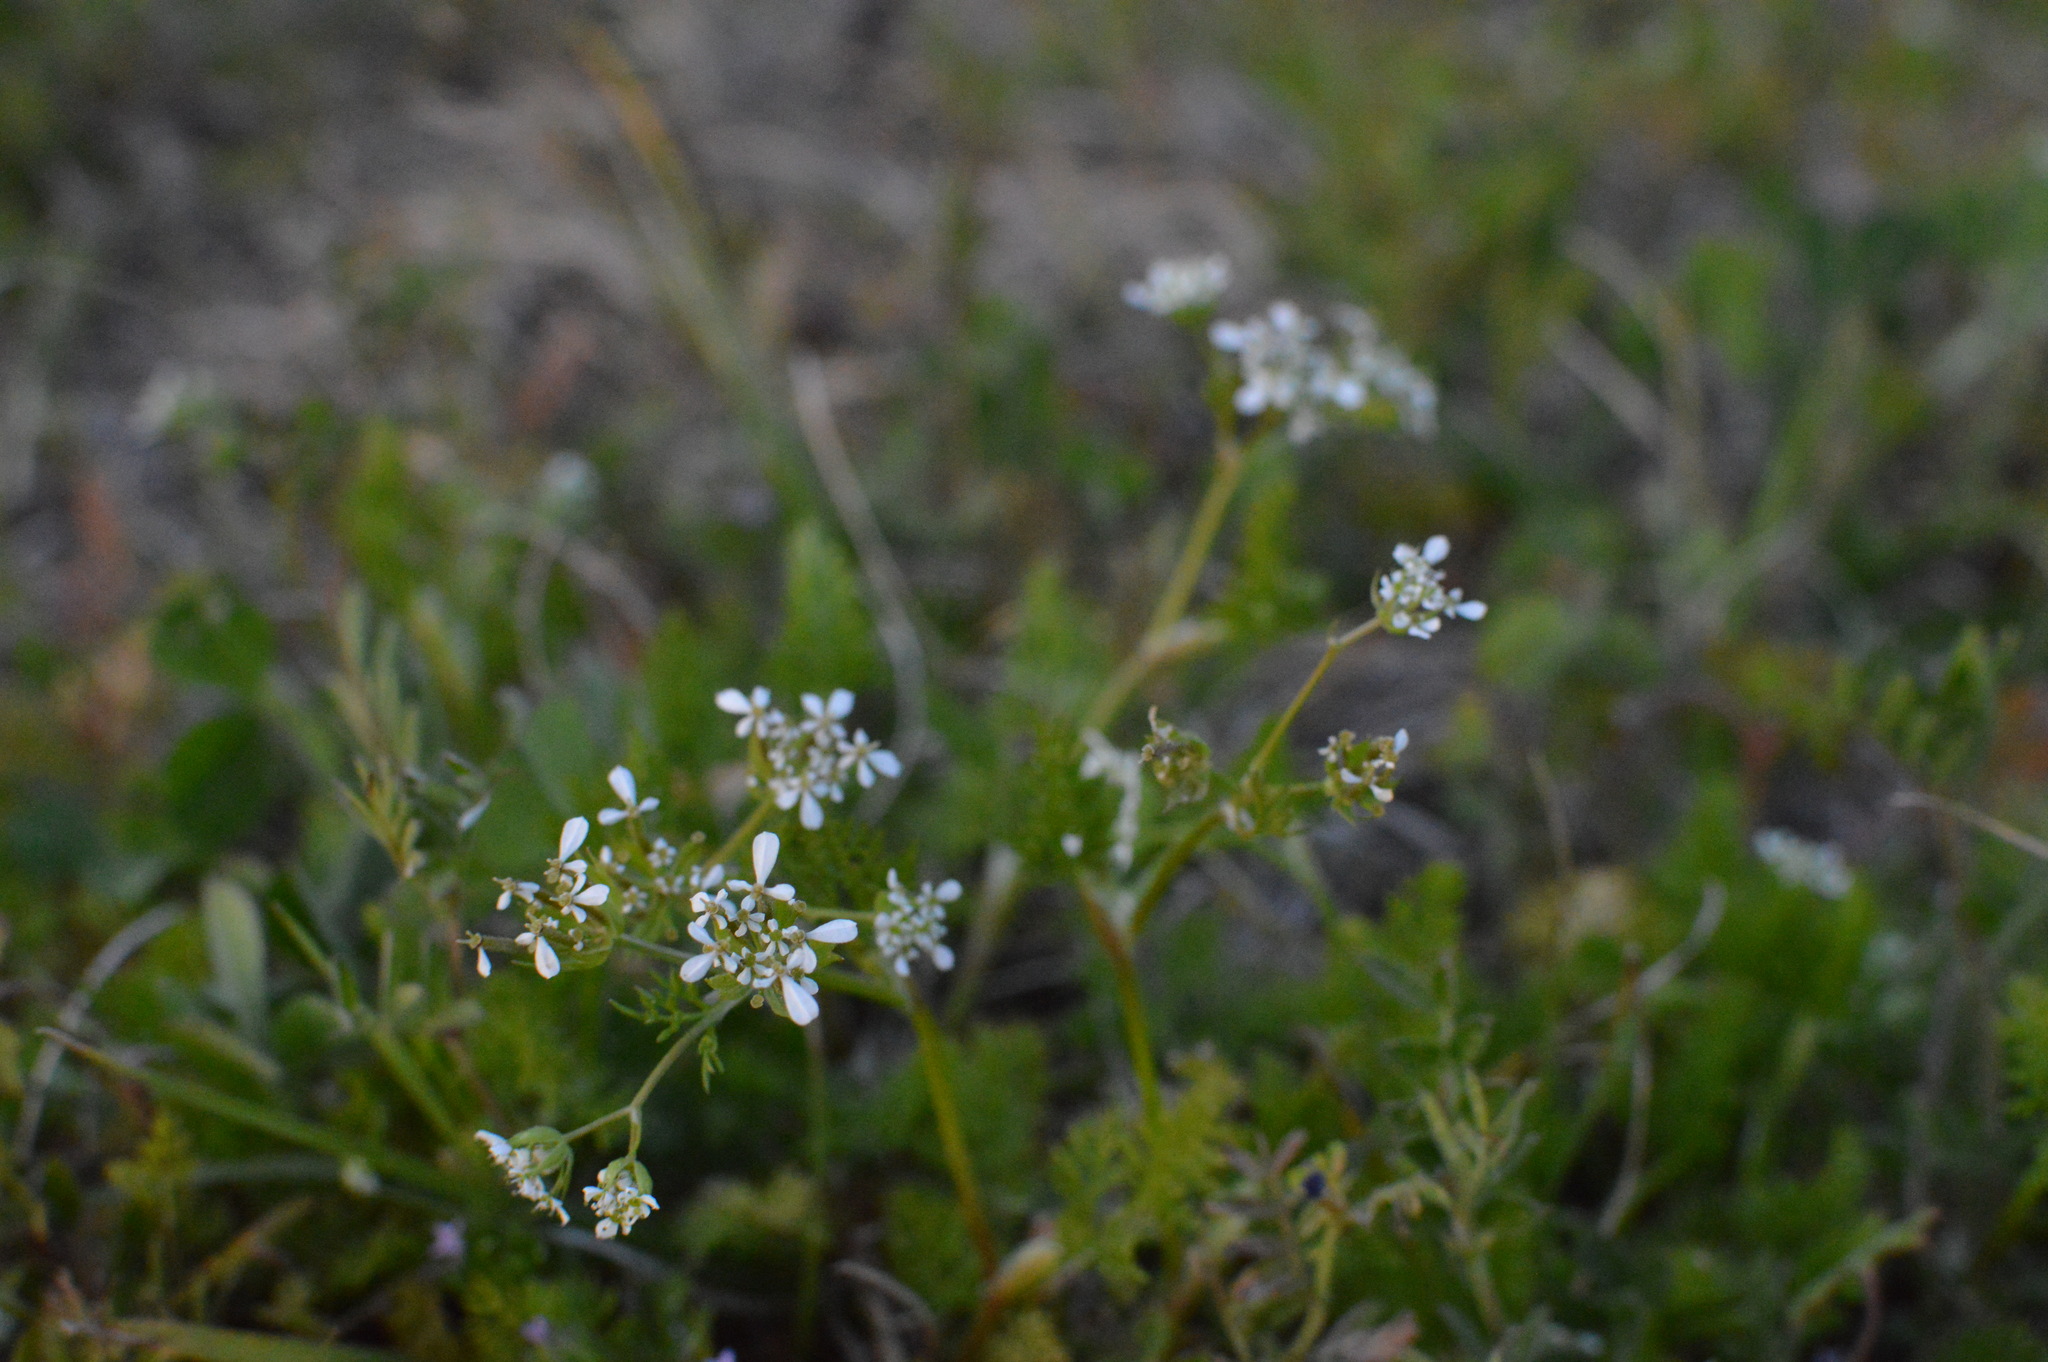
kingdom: Plantae
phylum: Tracheophyta
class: Magnoliopsida
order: Apiales
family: Apiaceae
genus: Scandix
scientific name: Scandix pecten-veneris
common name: Shepherd's-needle
